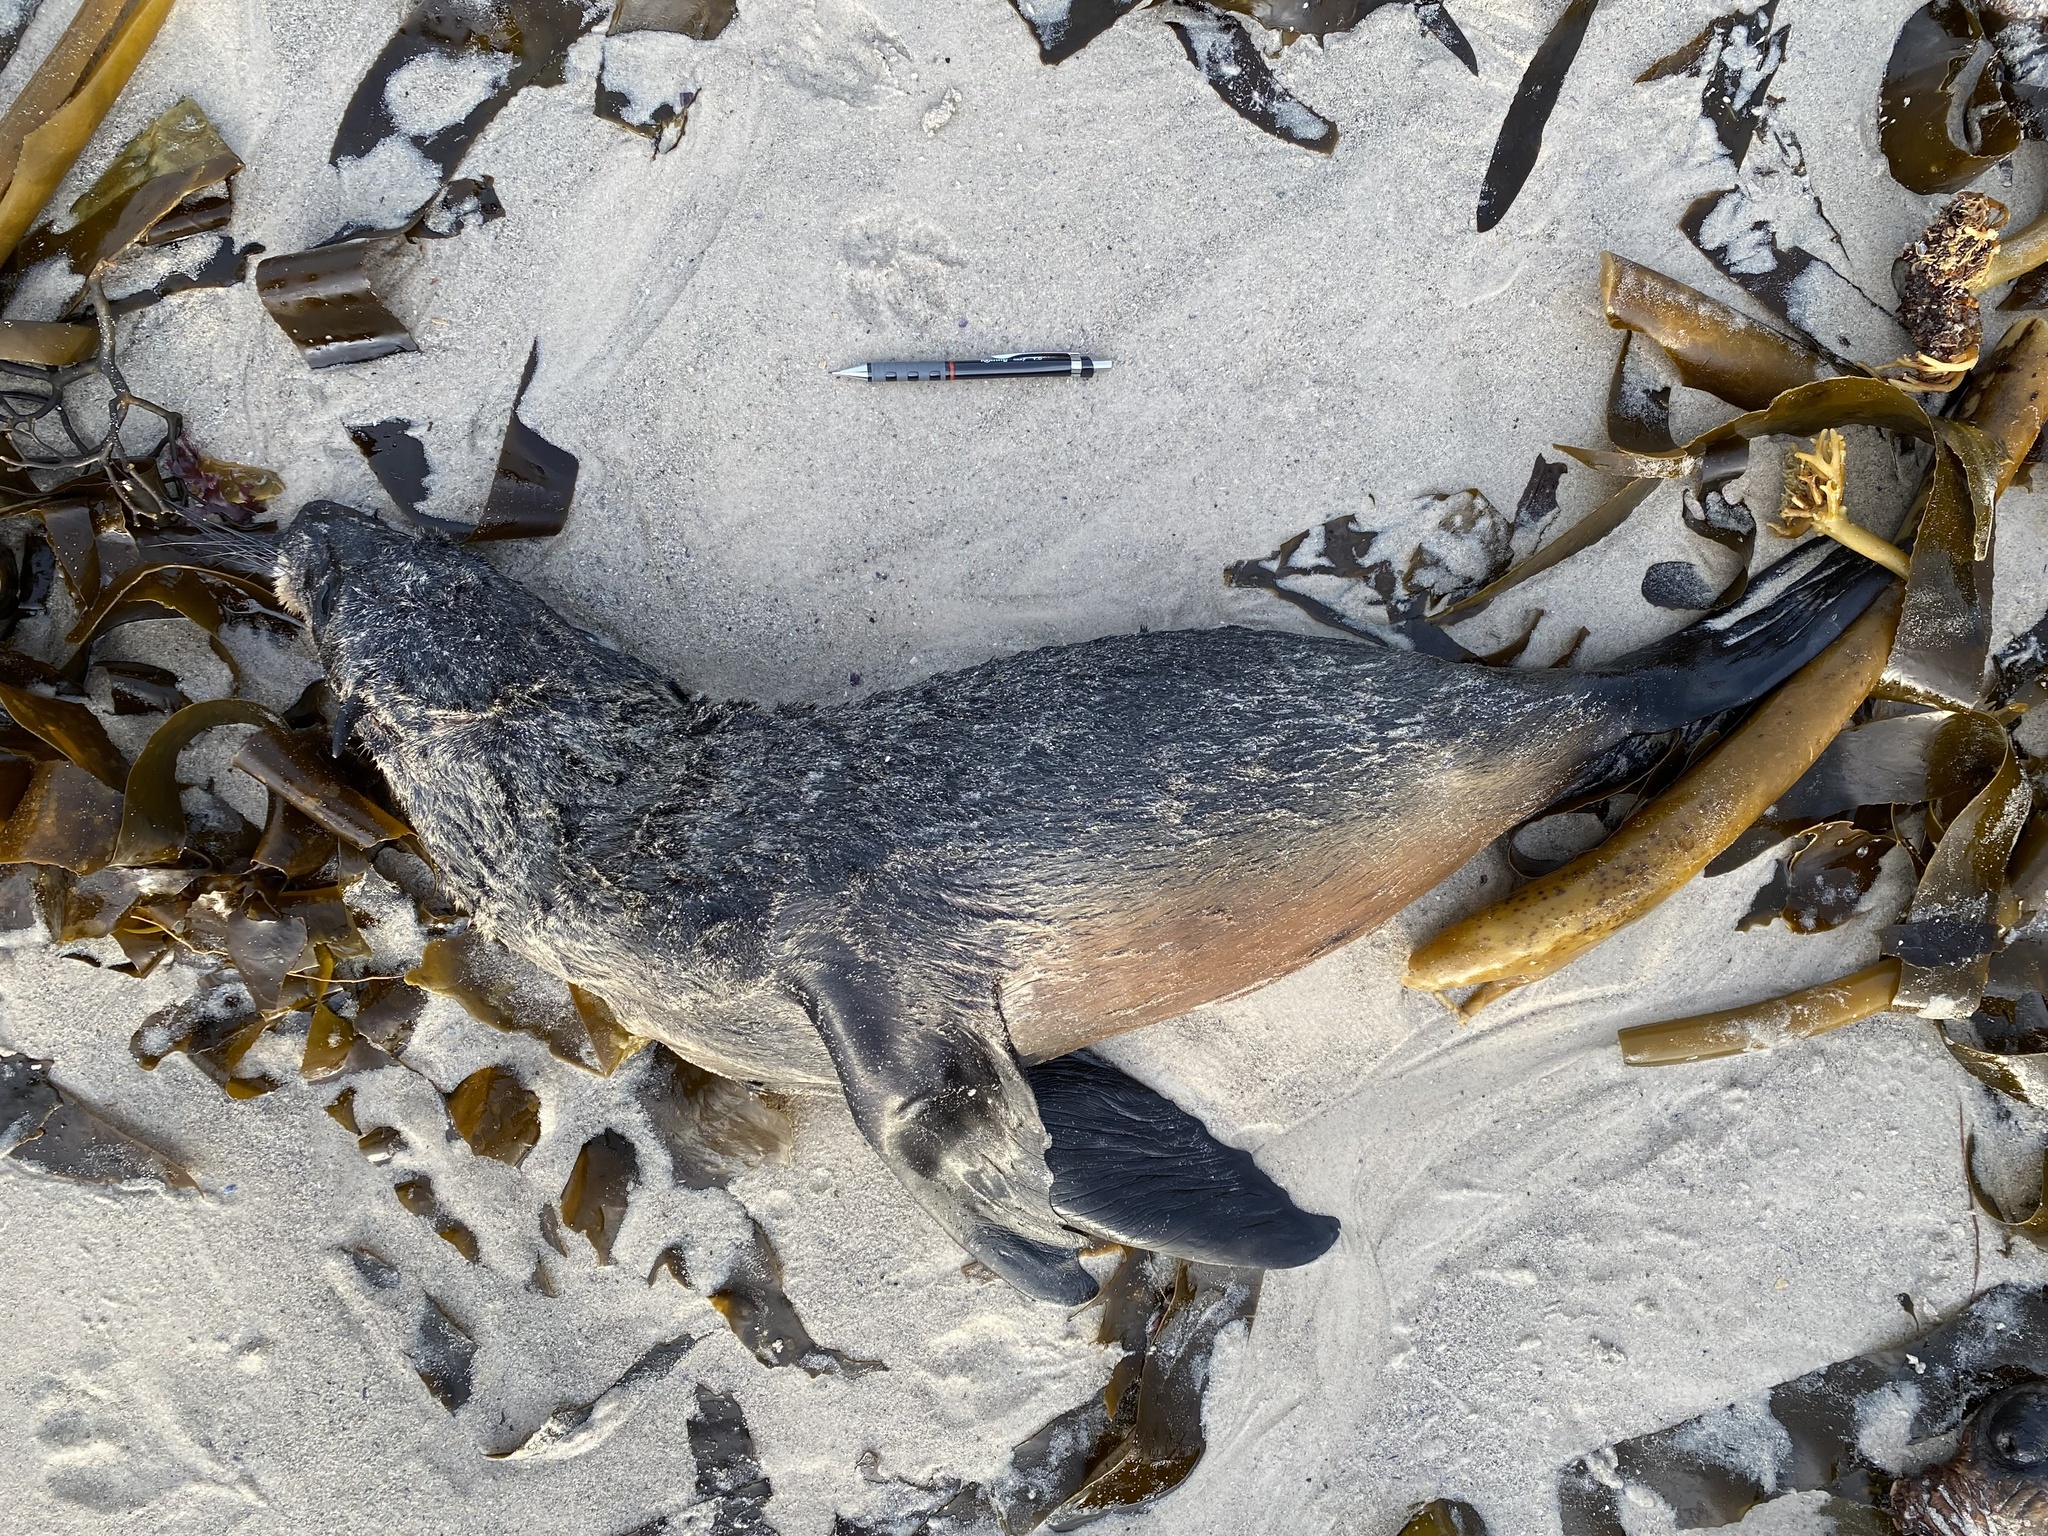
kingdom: Animalia
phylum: Chordata
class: Mammalia
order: Carnivora
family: Otariidae
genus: Arctocephalus
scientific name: Arctocephalus pusillus
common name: Brown fur seal
